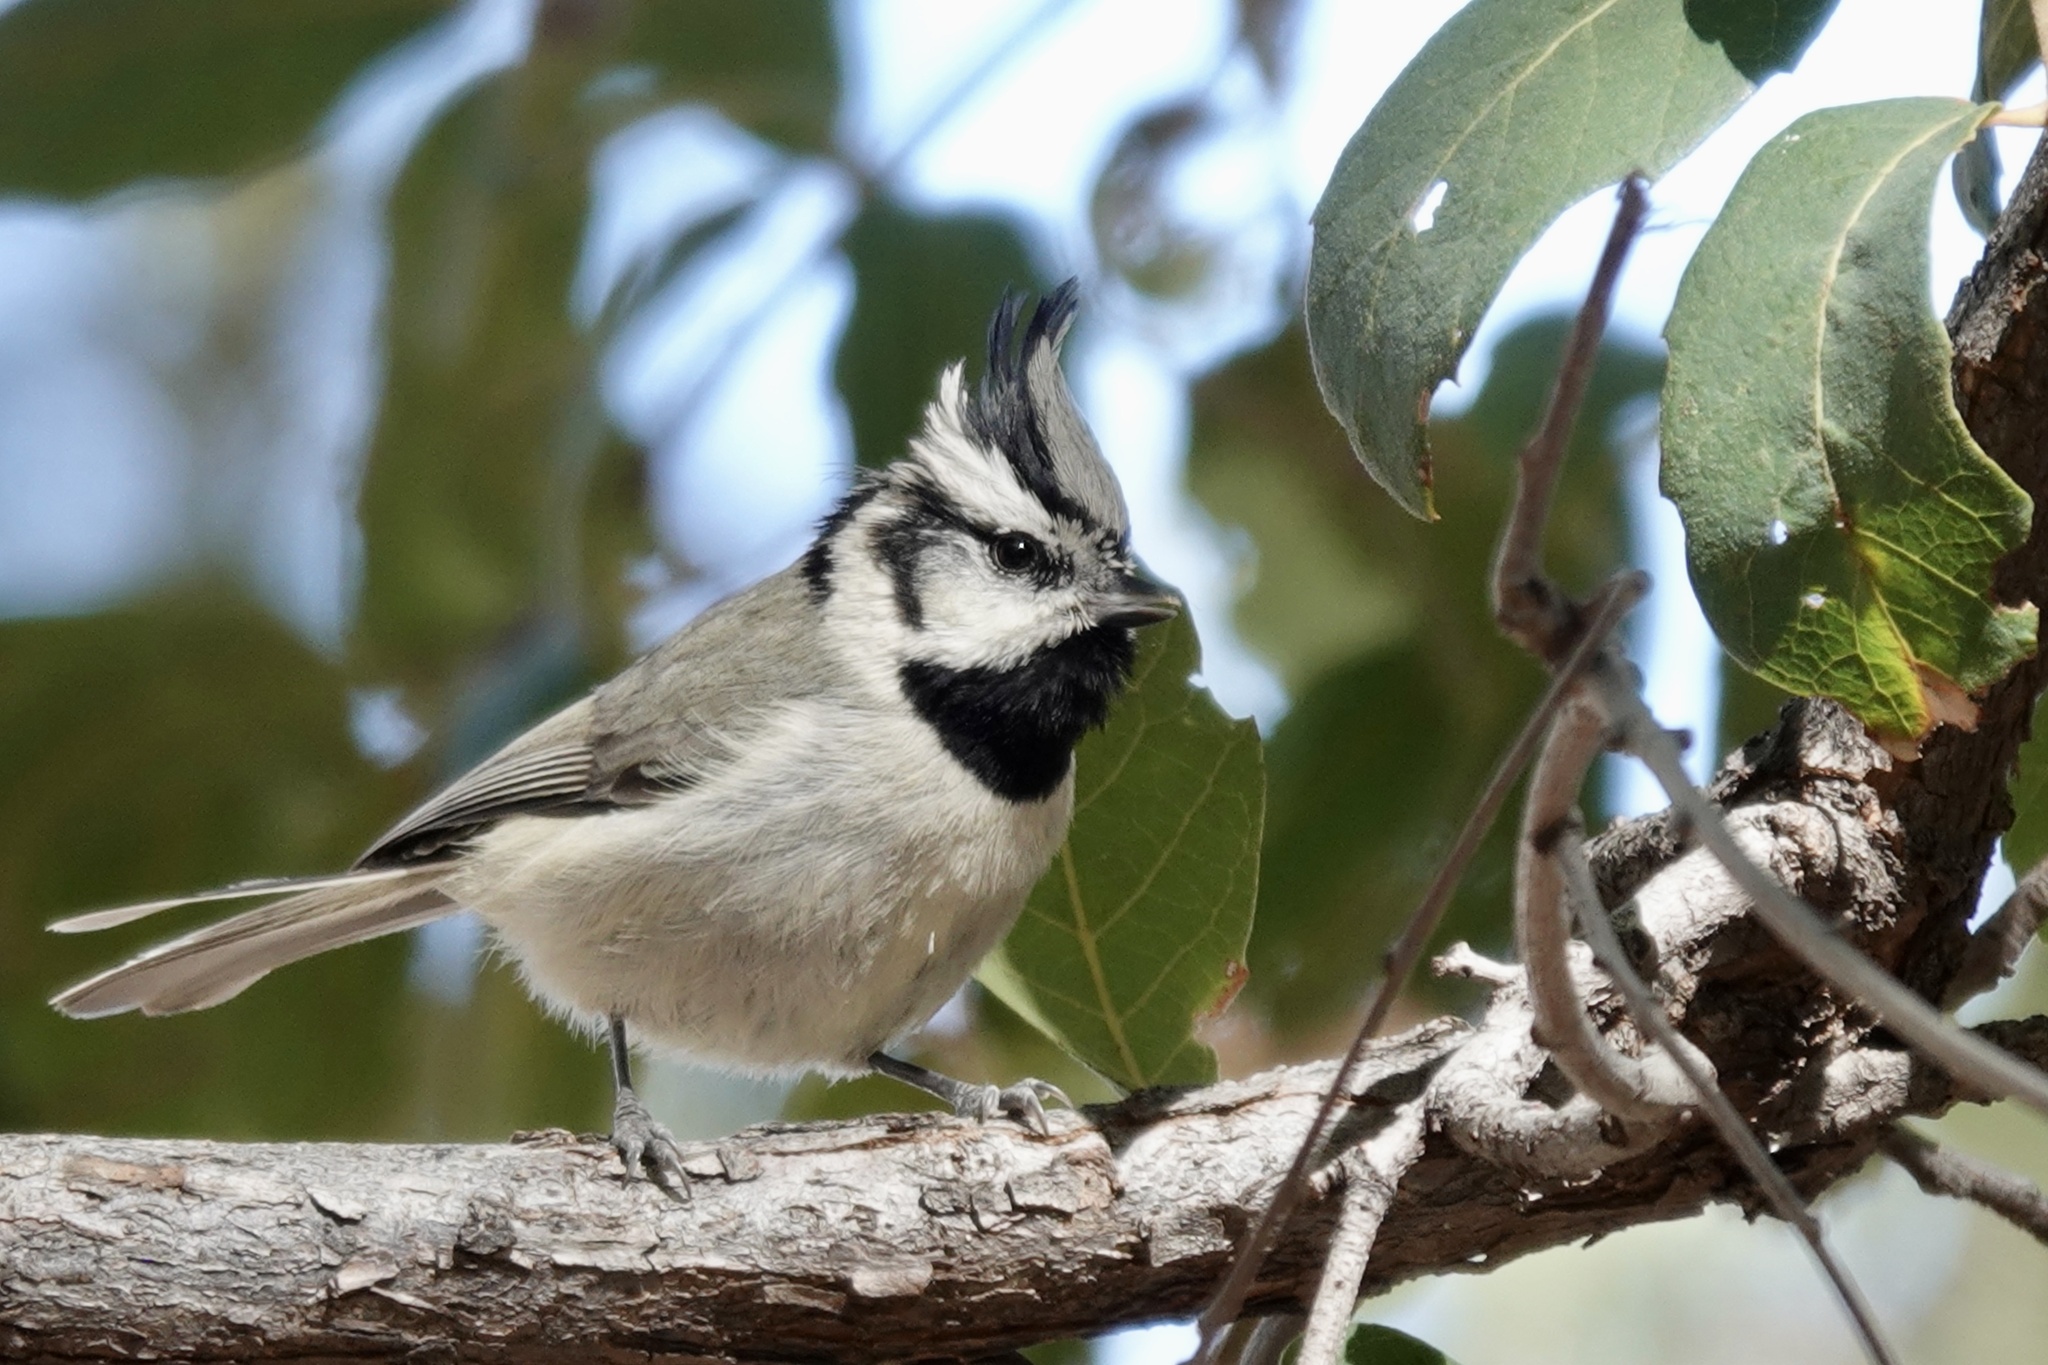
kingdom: Animalia
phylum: Chordata
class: Aves
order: Passeriformes
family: Paridae
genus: Baeolophus
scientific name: Baeolophus wollweberi
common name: Bridled titmouse
